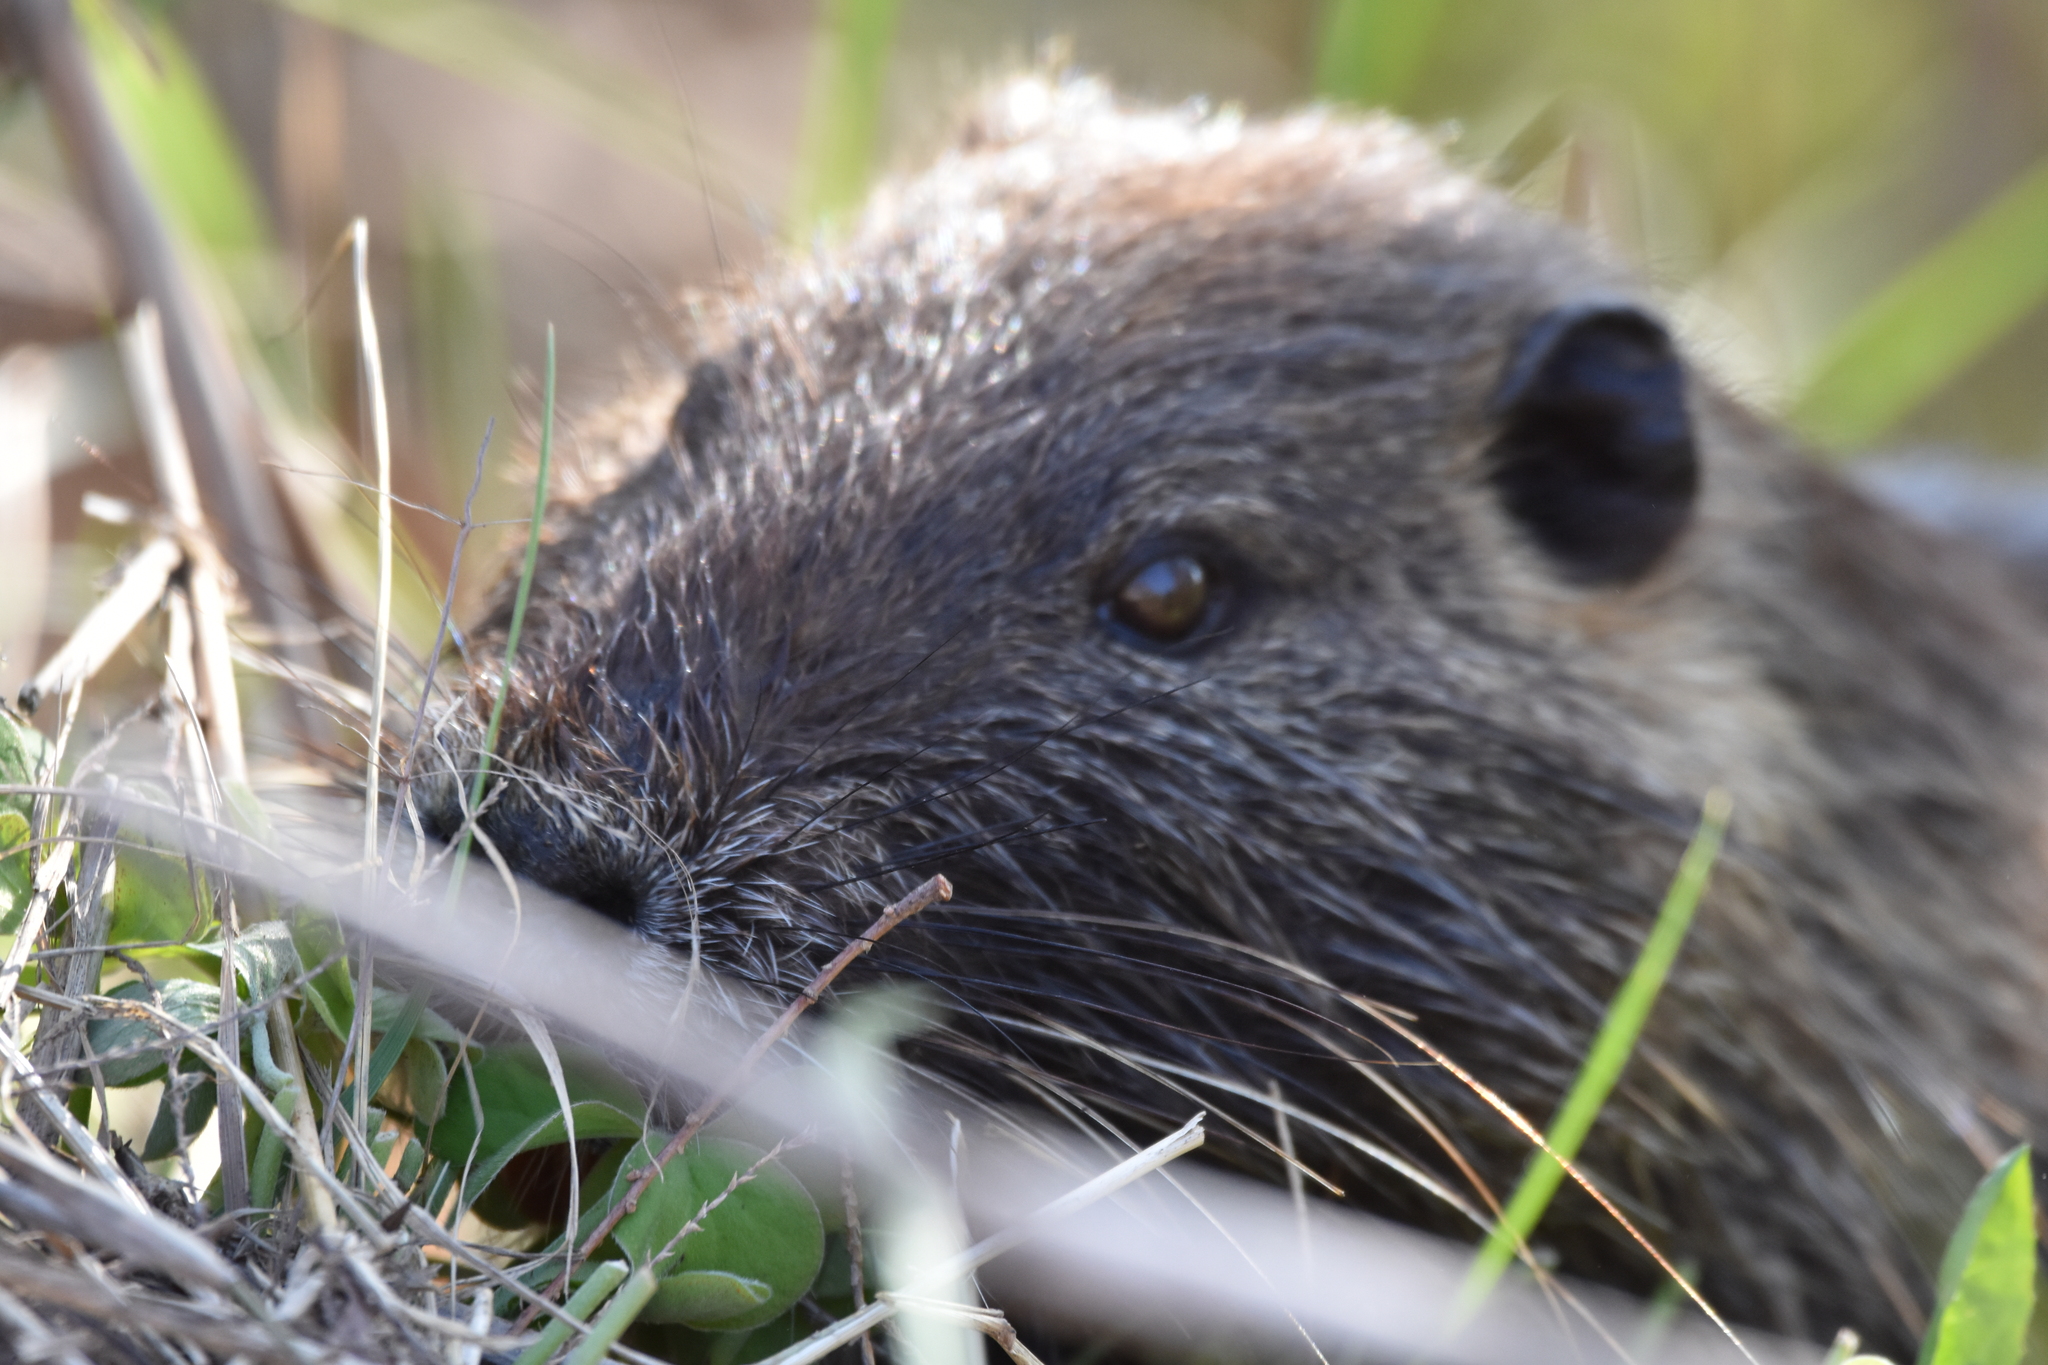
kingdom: Animalia
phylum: Chordata
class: Mammalia
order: Rodentia
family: Myocastoridae
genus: Myocastor
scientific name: Myocastor coypus
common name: Coypu
